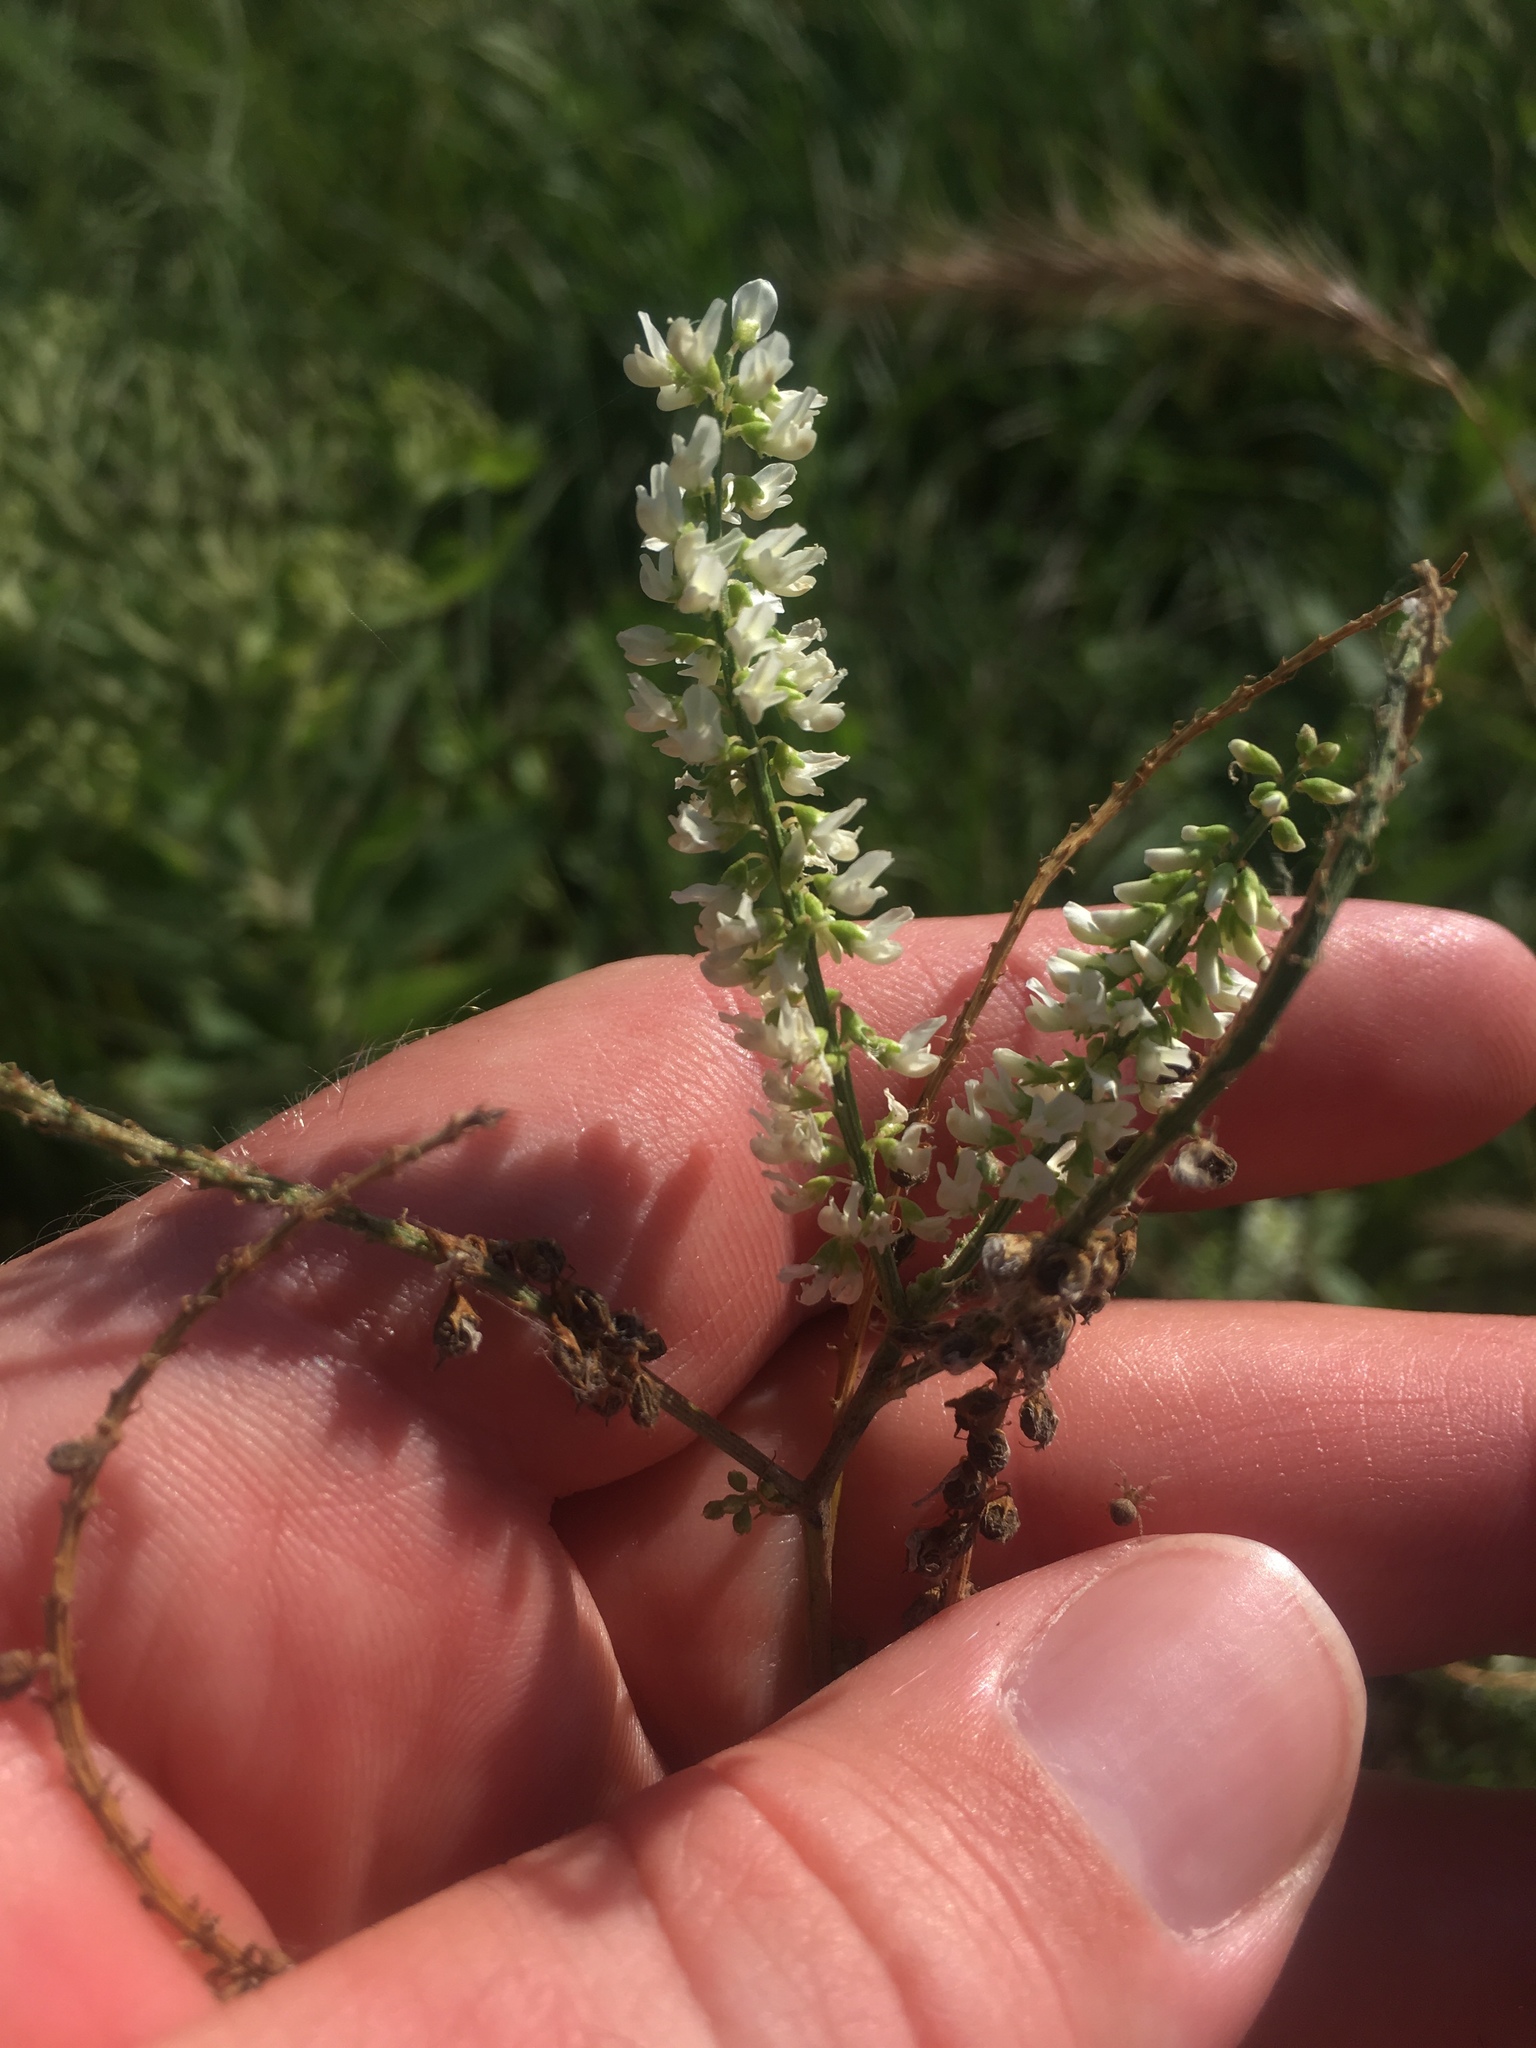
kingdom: Plantae
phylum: Tracheophyta
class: Magnoliopsida
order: Fabales
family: Fabaceae
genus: Melilotus
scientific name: Melilotus albus
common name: White melilot
